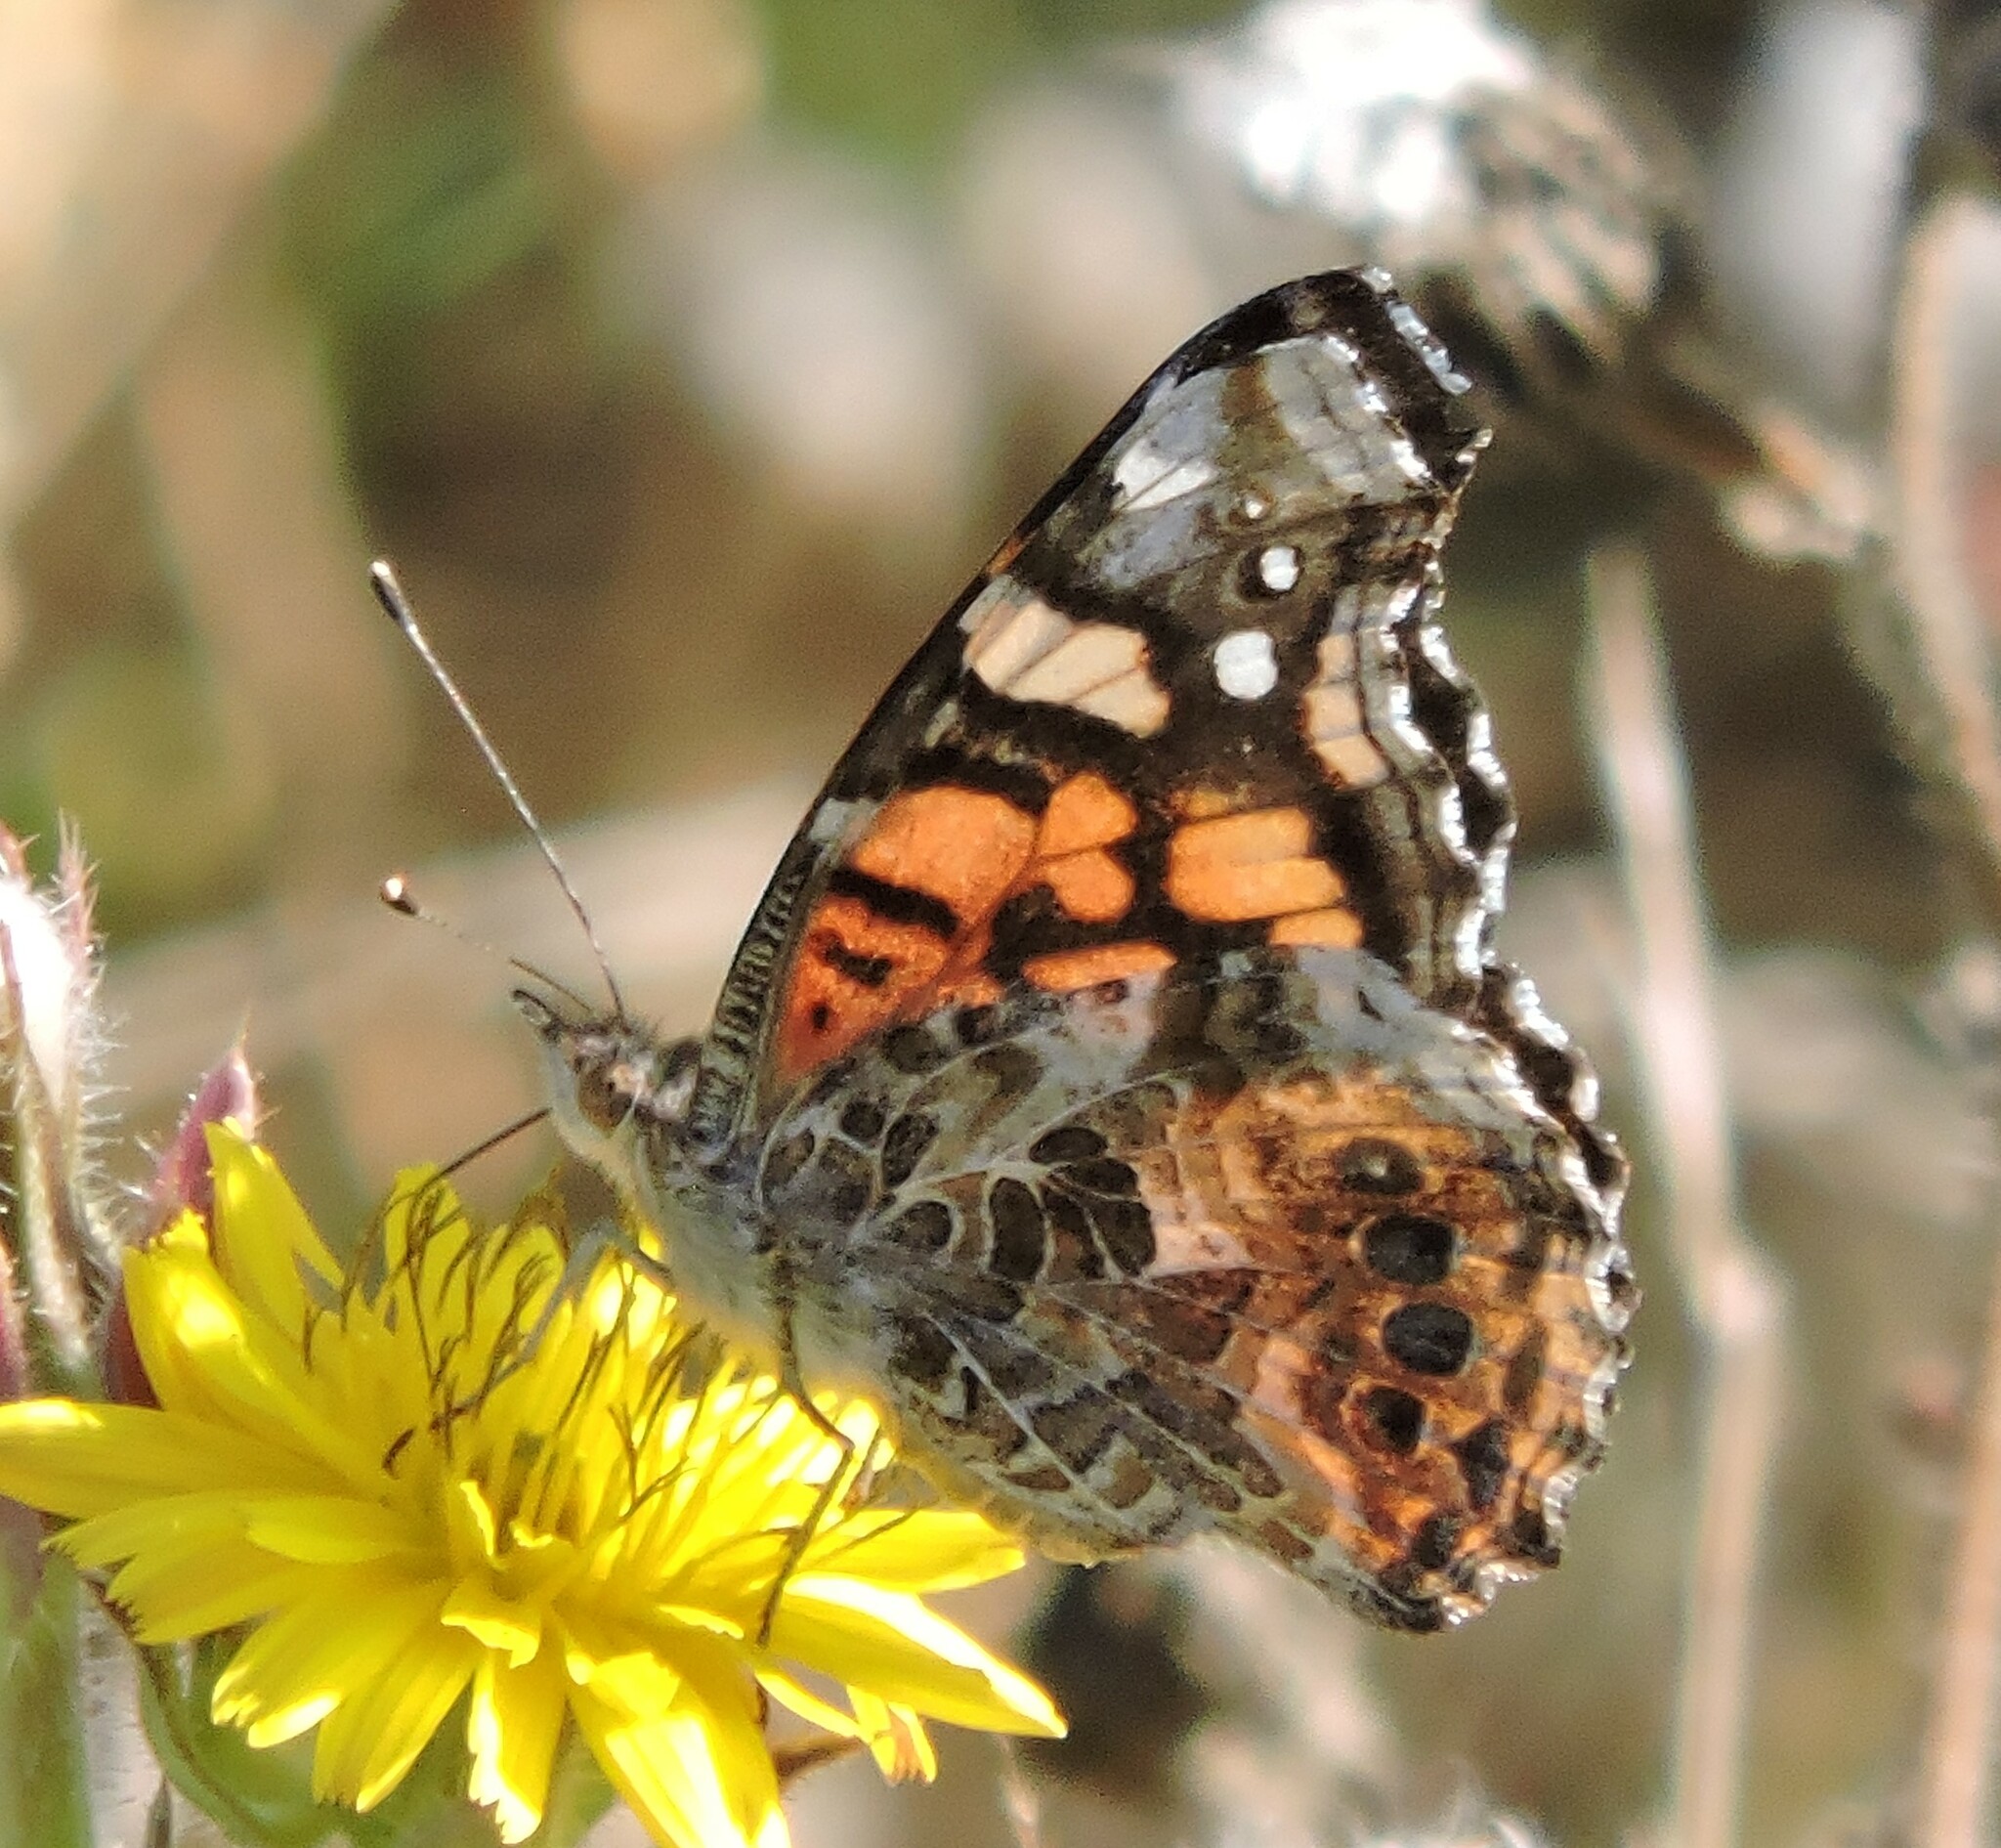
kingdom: Animalia
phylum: Arthropoda
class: Insecta
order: Lepidoptera
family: Nymphalidae
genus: Vanessa
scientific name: Vanessa annabella
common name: West coast lady
